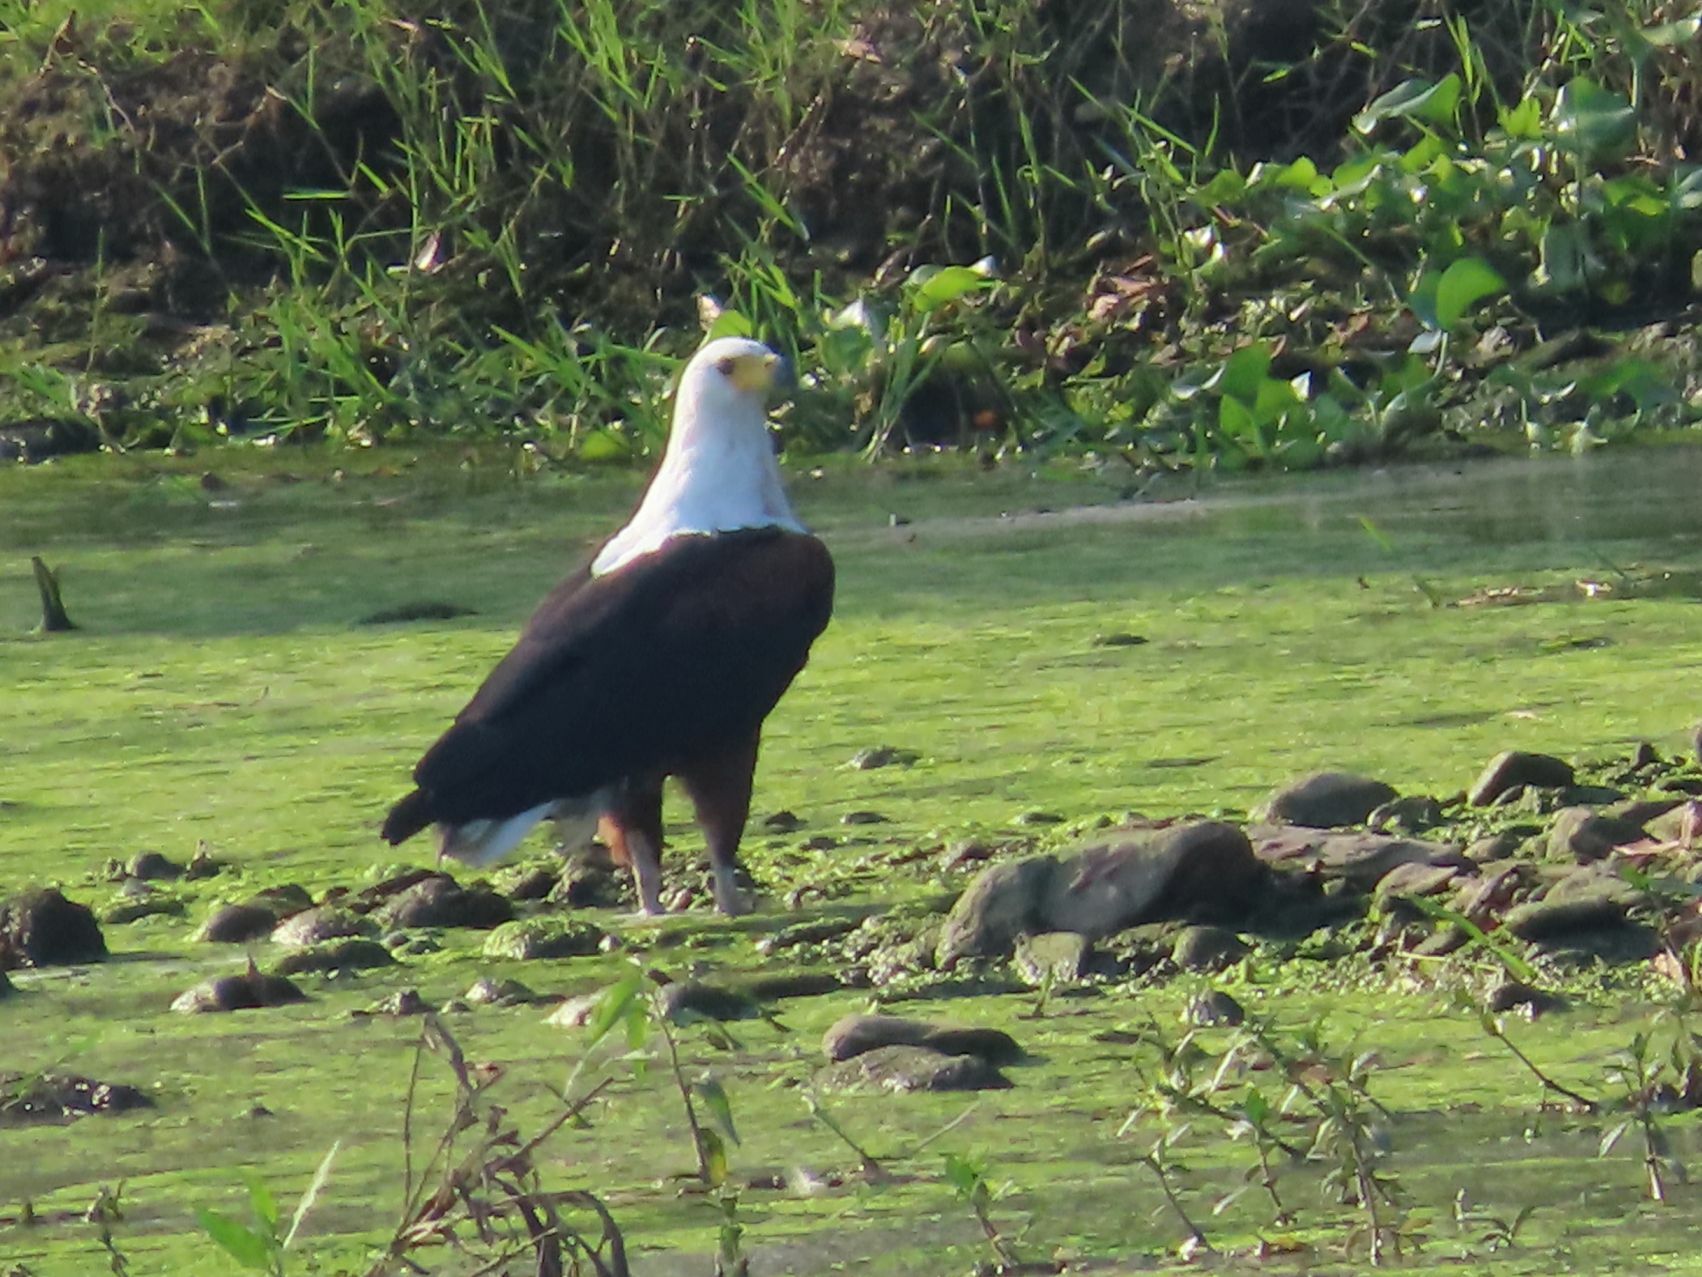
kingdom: Animalia
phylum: Chordata
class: Aves
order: Accipitriformes
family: Accipitridae
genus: Haliaeetus
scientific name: Haliaeetus vocifer
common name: African fish eagle
